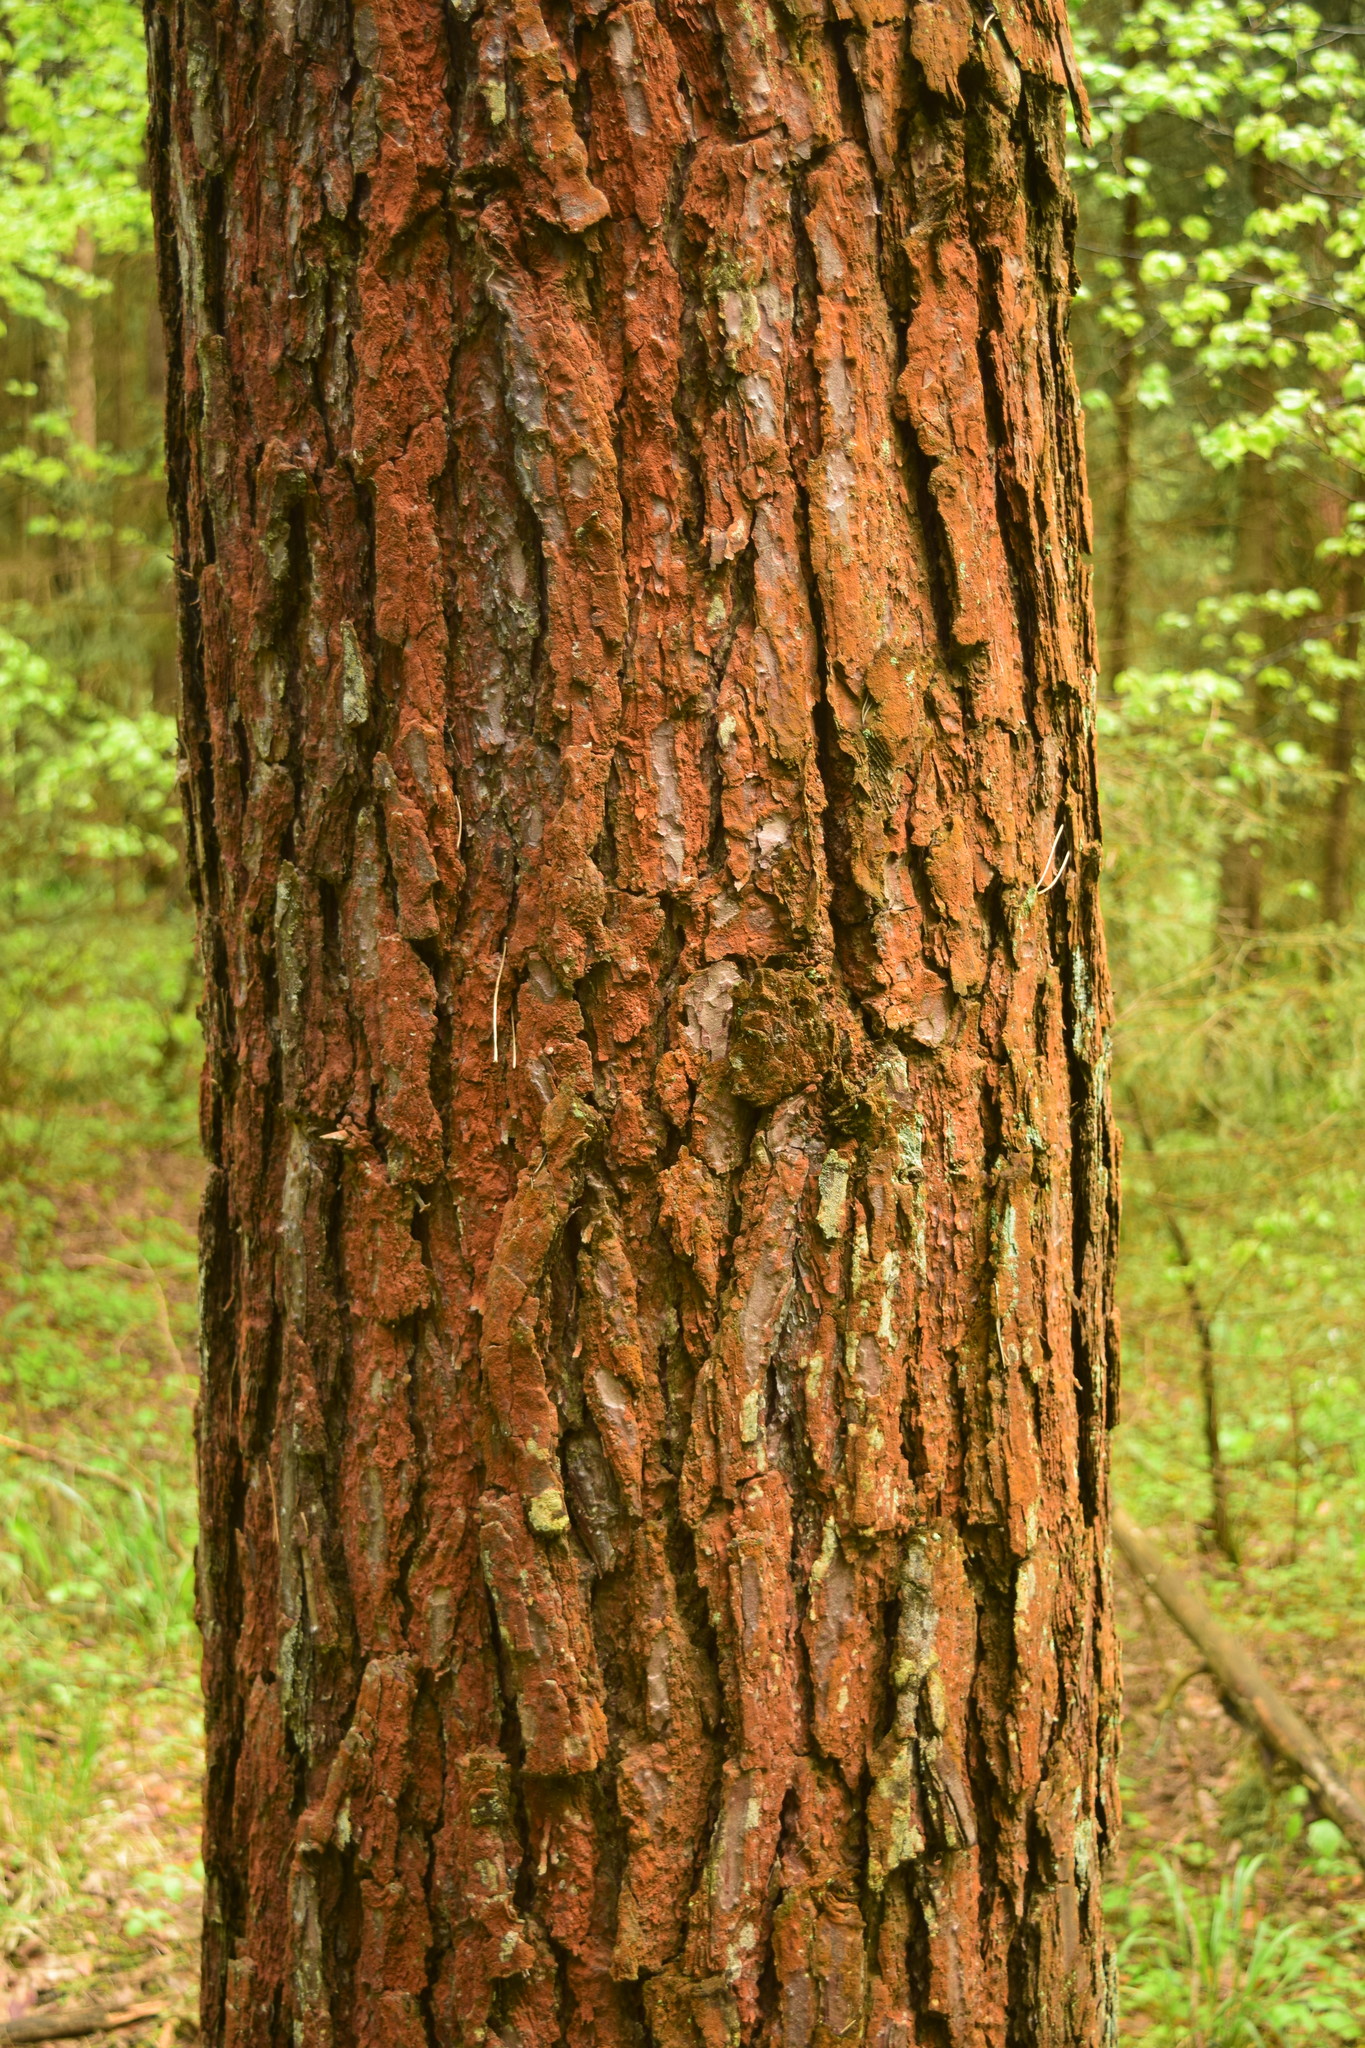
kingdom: Plantae
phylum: Tracheophyta
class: Pinopsida
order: Pinales
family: Pinaceae
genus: Pinus
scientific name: Pinus sylvestris
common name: Scots pine
